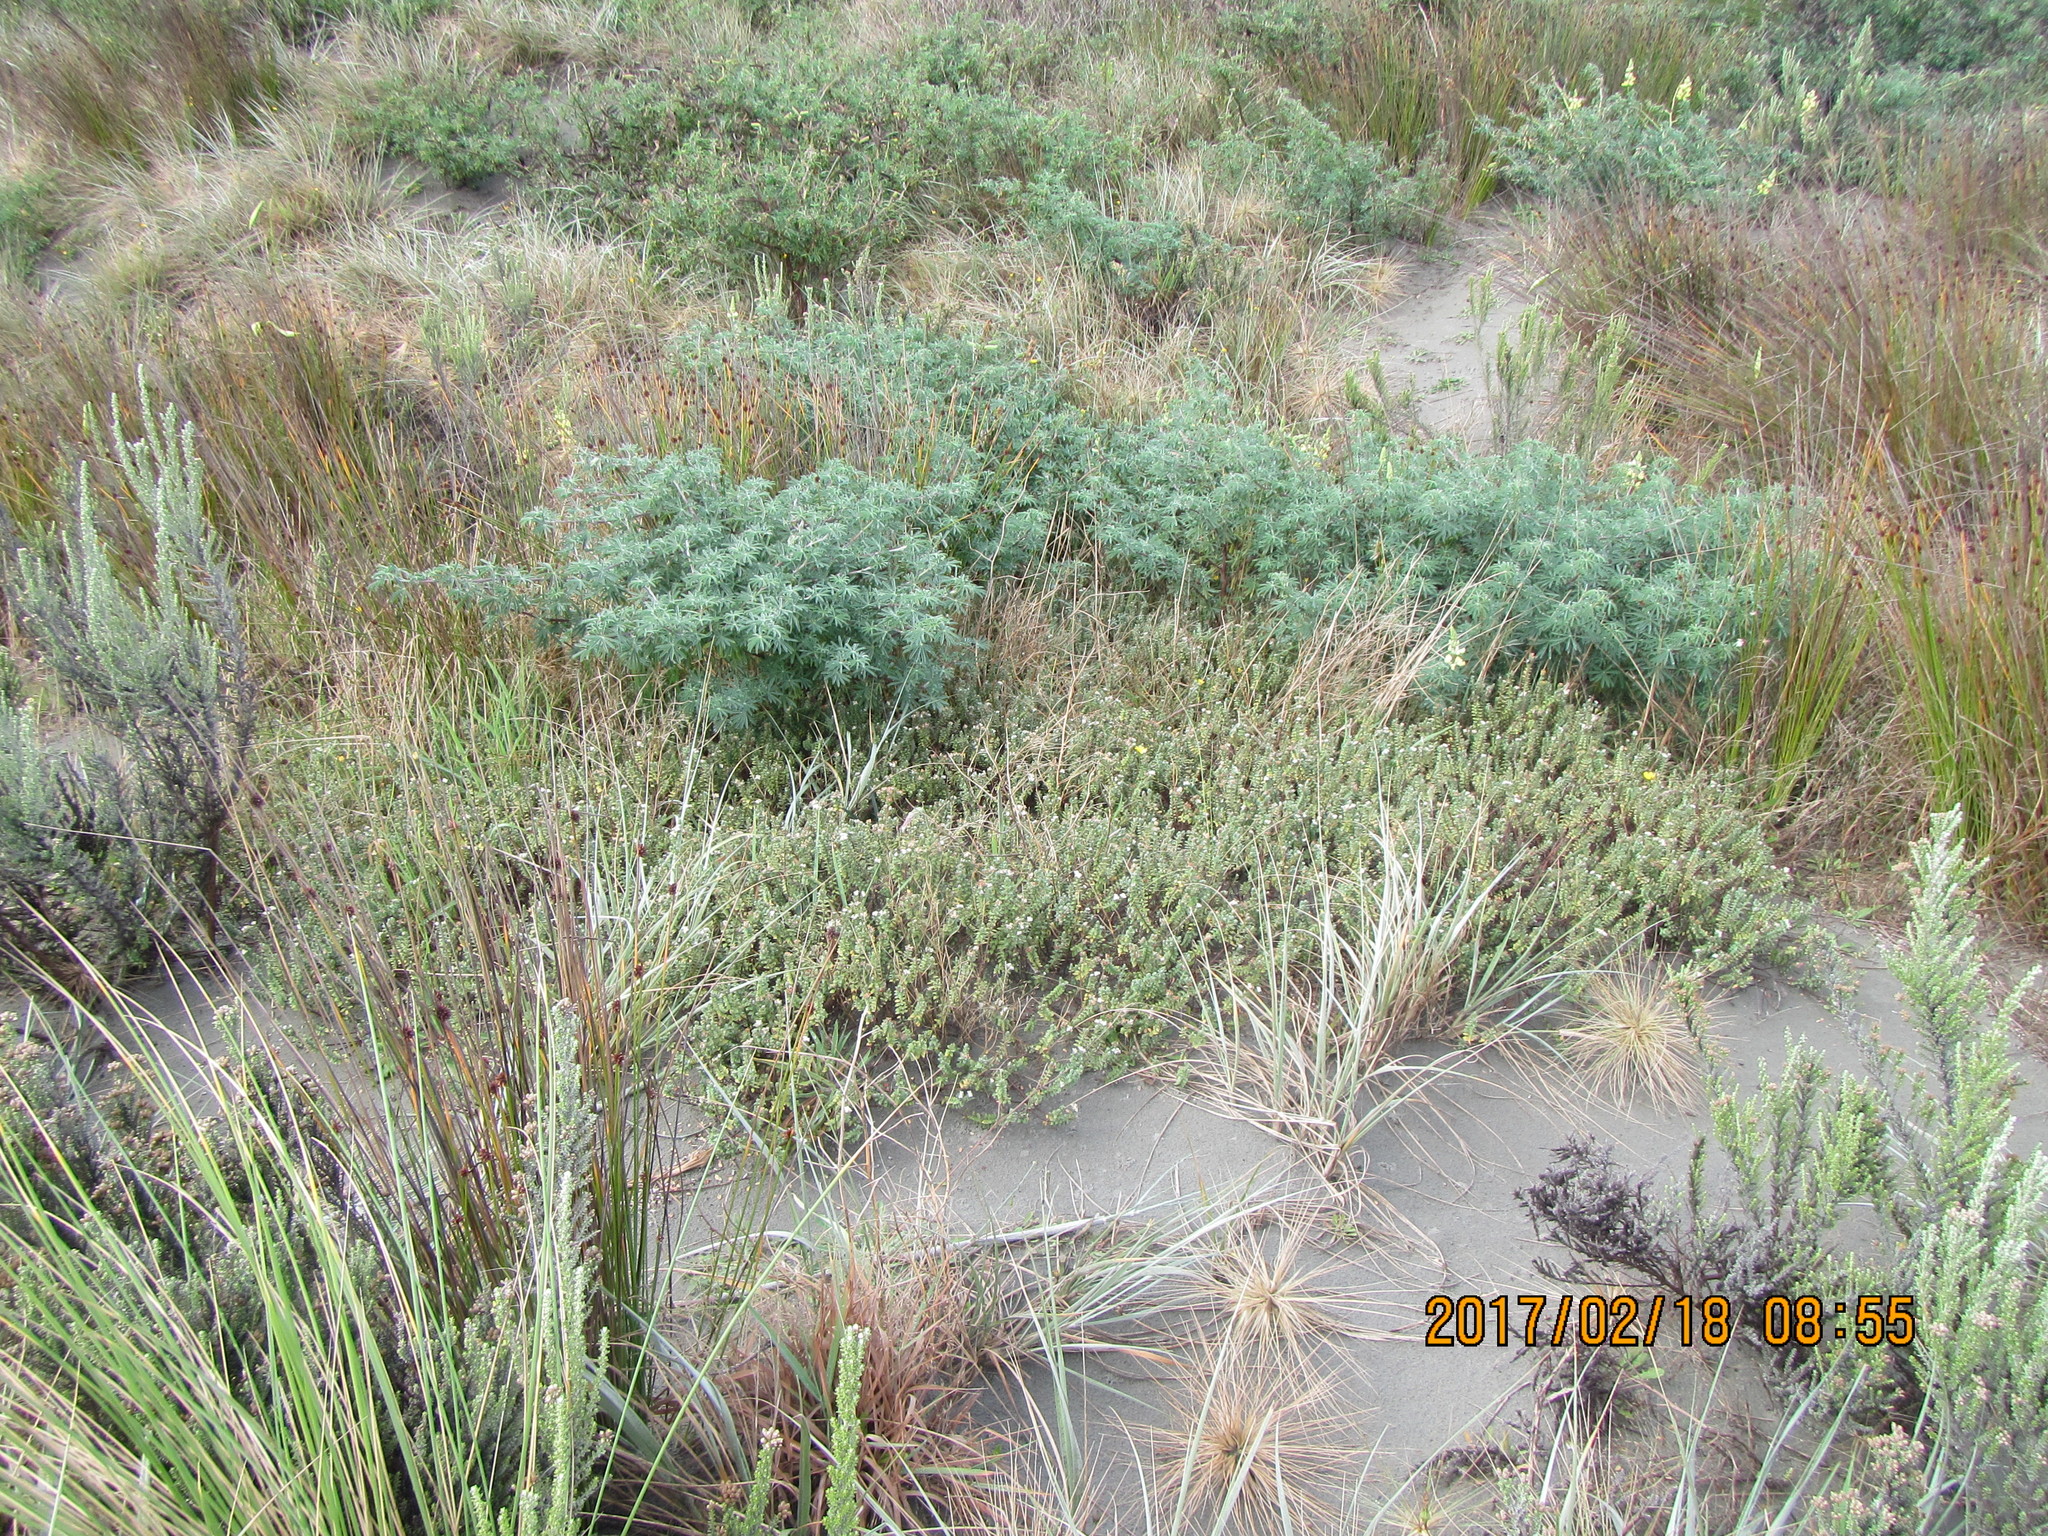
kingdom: Plantae
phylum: Tracheophyta
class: Magnoliopsida
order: Malvales
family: Thymelaeaceae
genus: Pimelea
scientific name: Pimelea villosa
